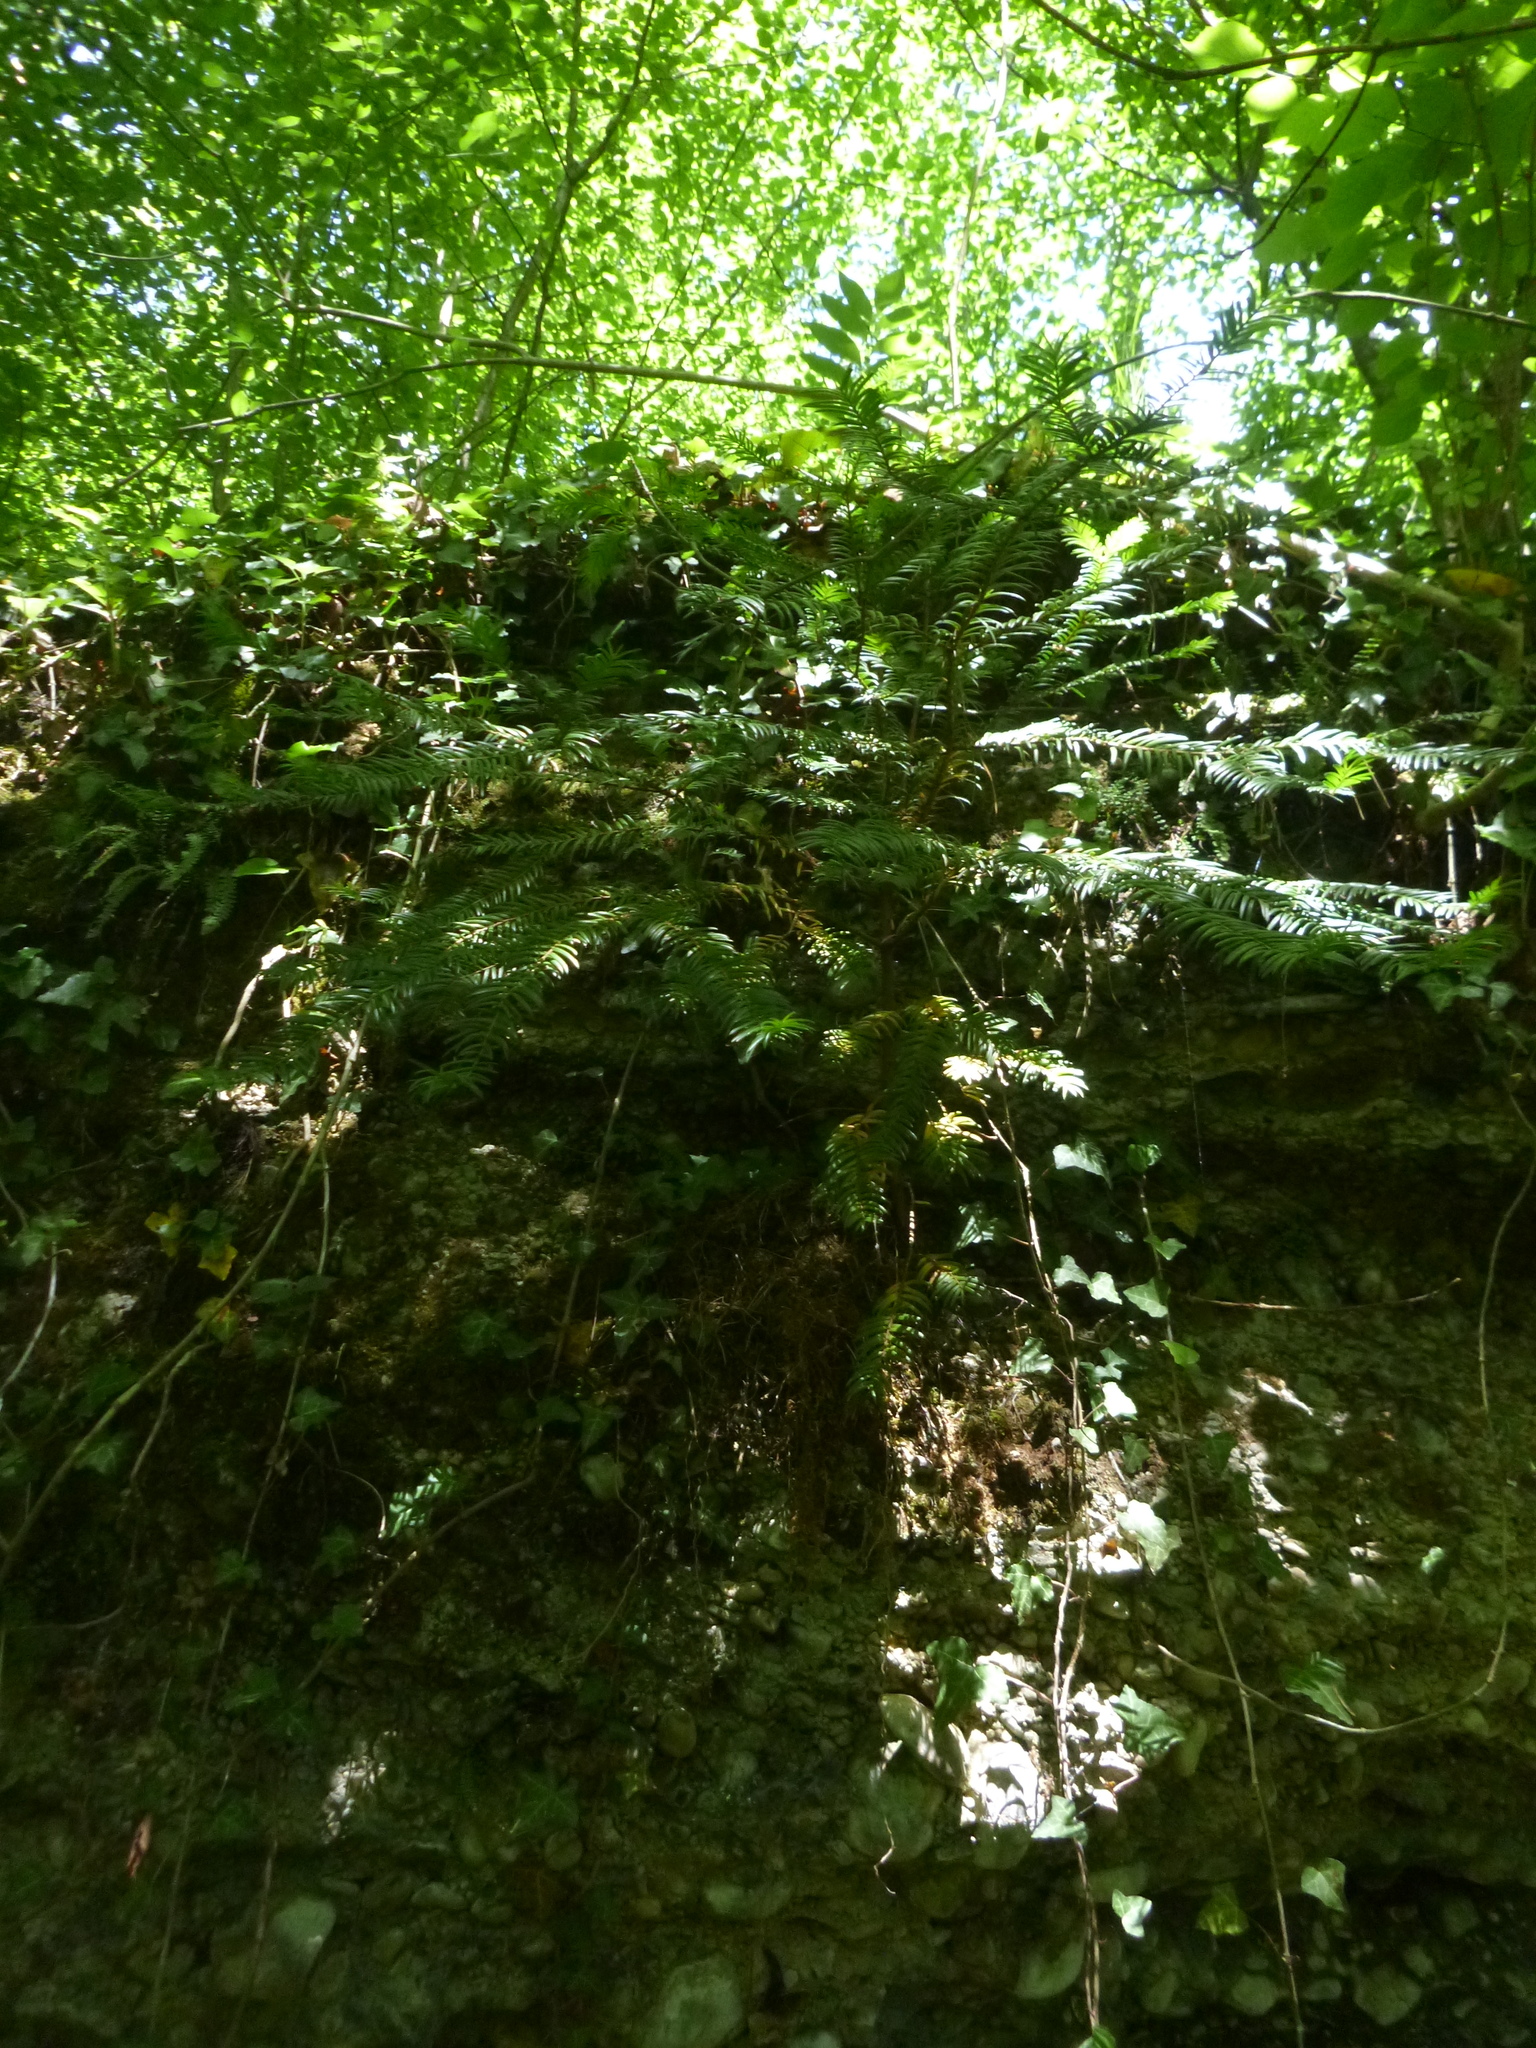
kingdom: Plantae
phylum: Tracheophyta
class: Pinopsida
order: Pinales
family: Taxaceae
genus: Taxus
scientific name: Taxus baccata
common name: Yew
